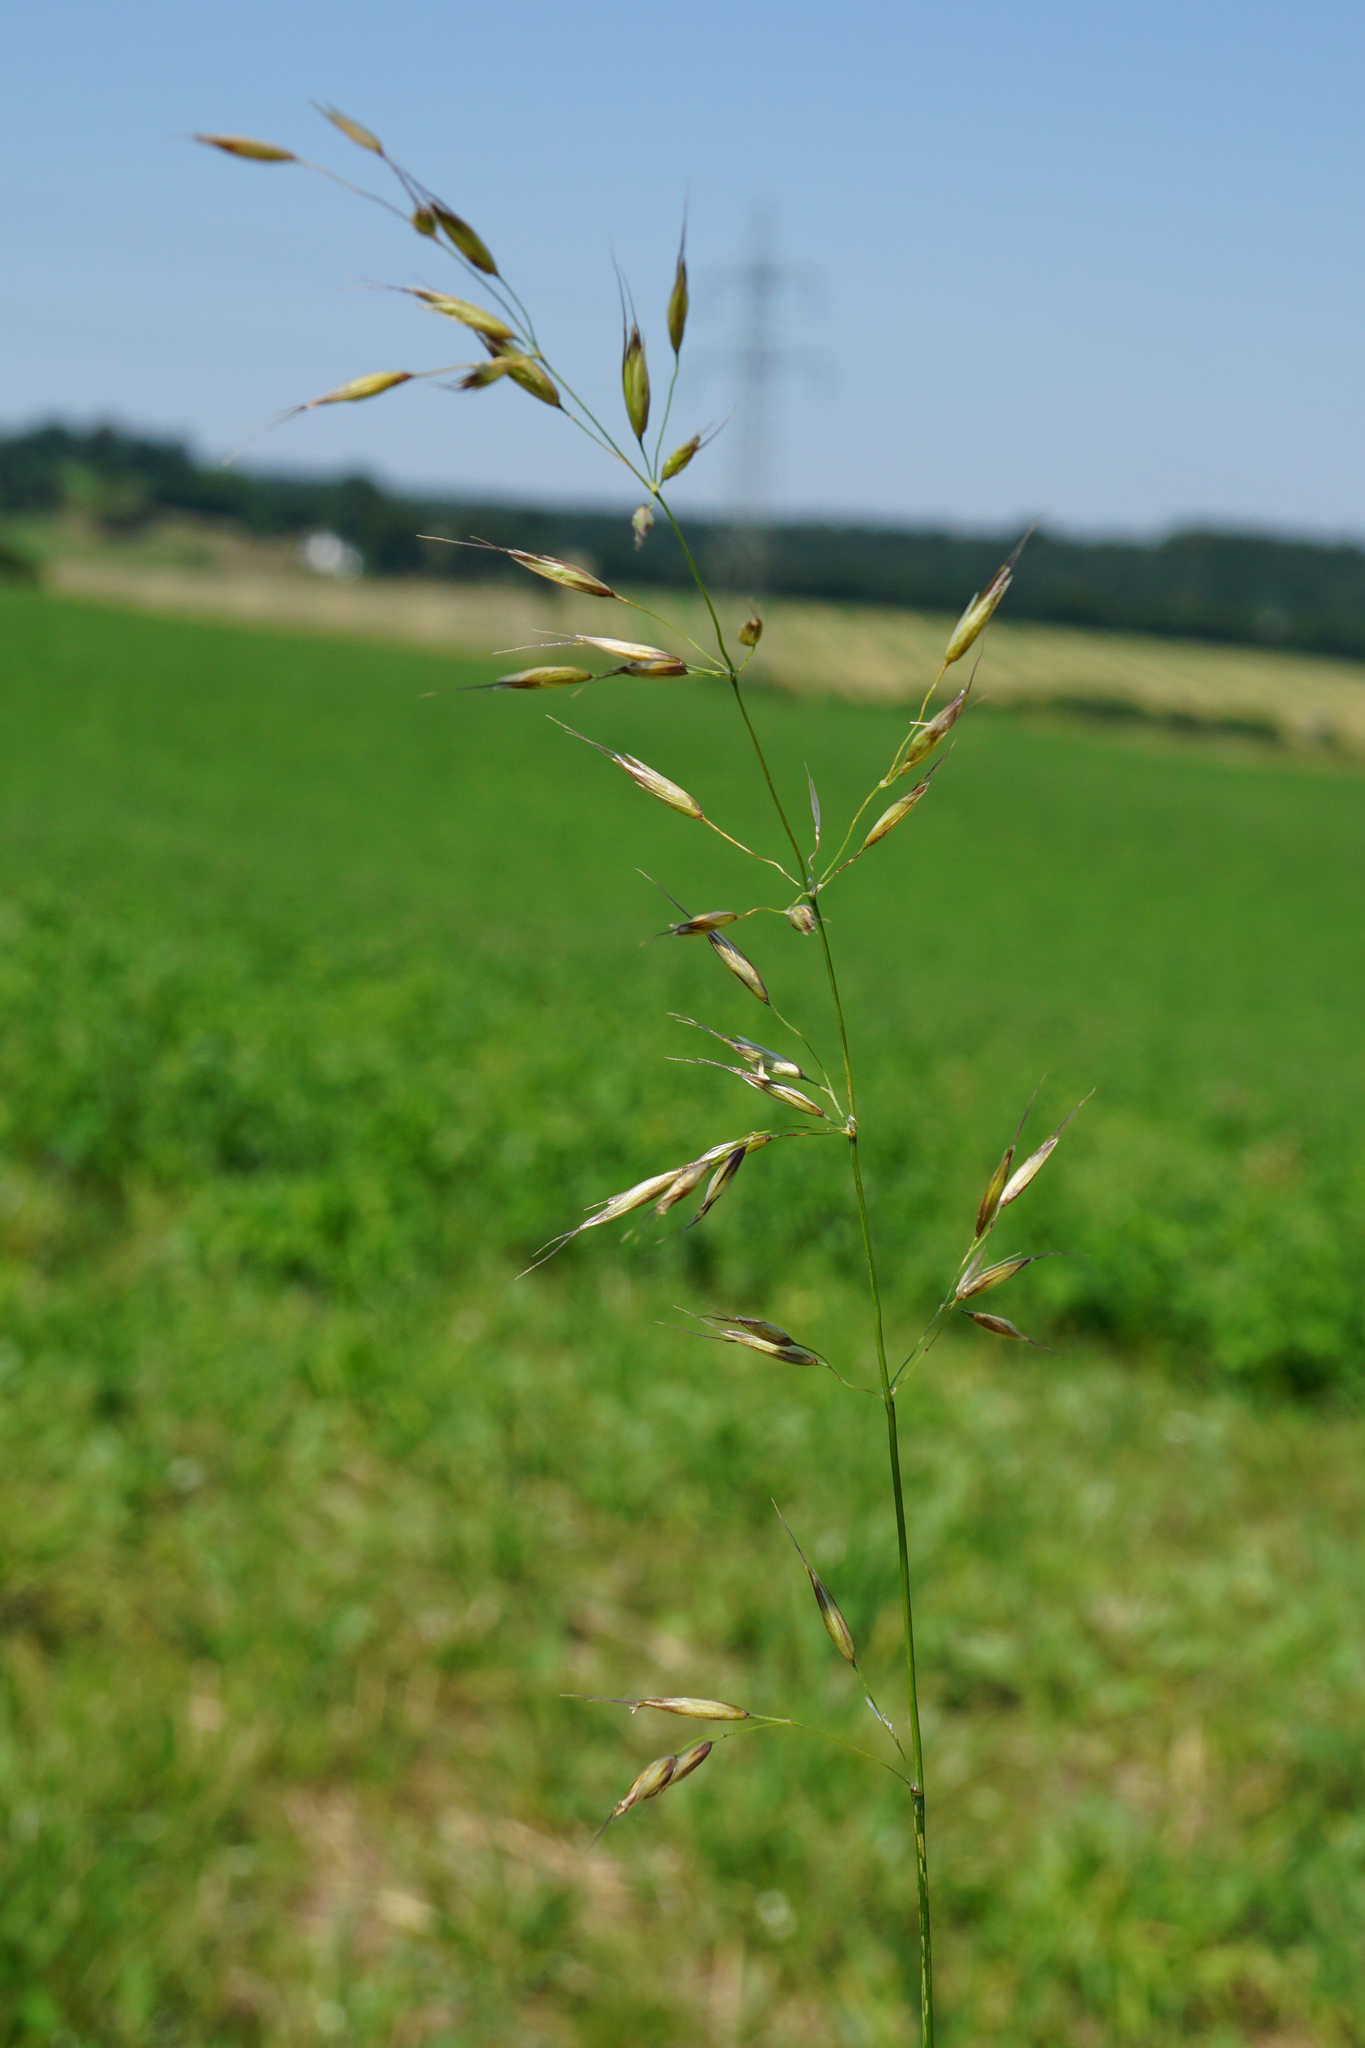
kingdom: Plantae
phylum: Tracheophyta
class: Liliopsida
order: Poales
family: Poaceae
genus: Arrhenatherum
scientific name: Arrhenatherum elatius
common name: Tall oatgrass
